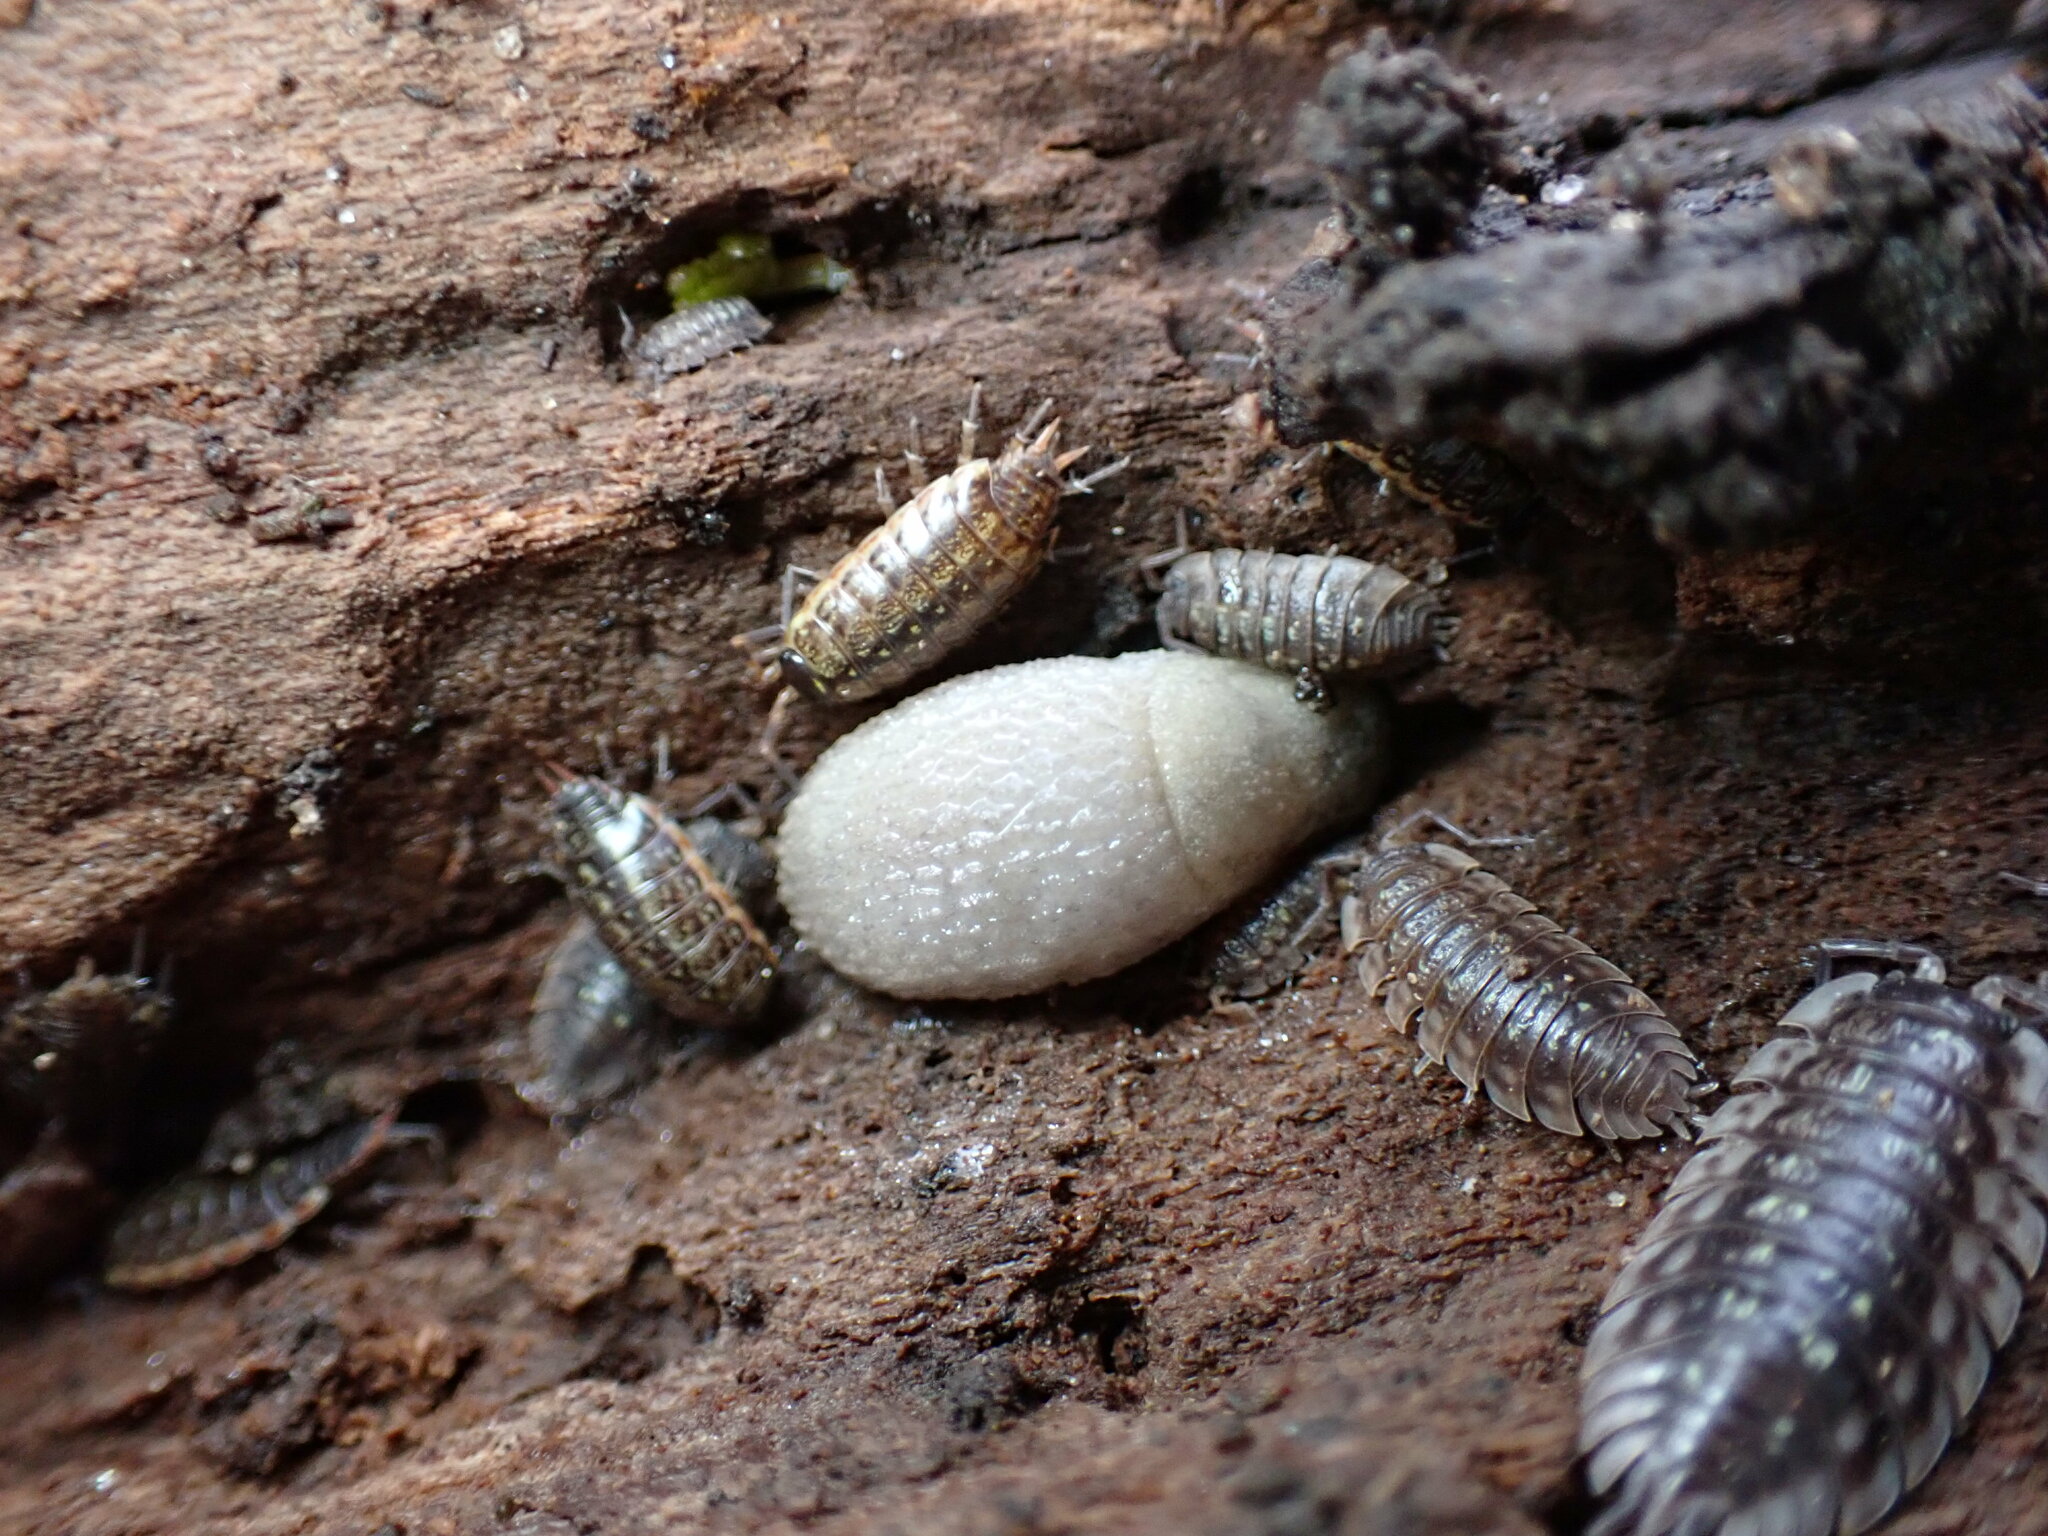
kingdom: Animalia
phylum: Mollusca
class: Gastropoda
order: Stylommatophora
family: Arionidae
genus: Arion
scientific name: Arion intermedius
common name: Hedgehog slug
